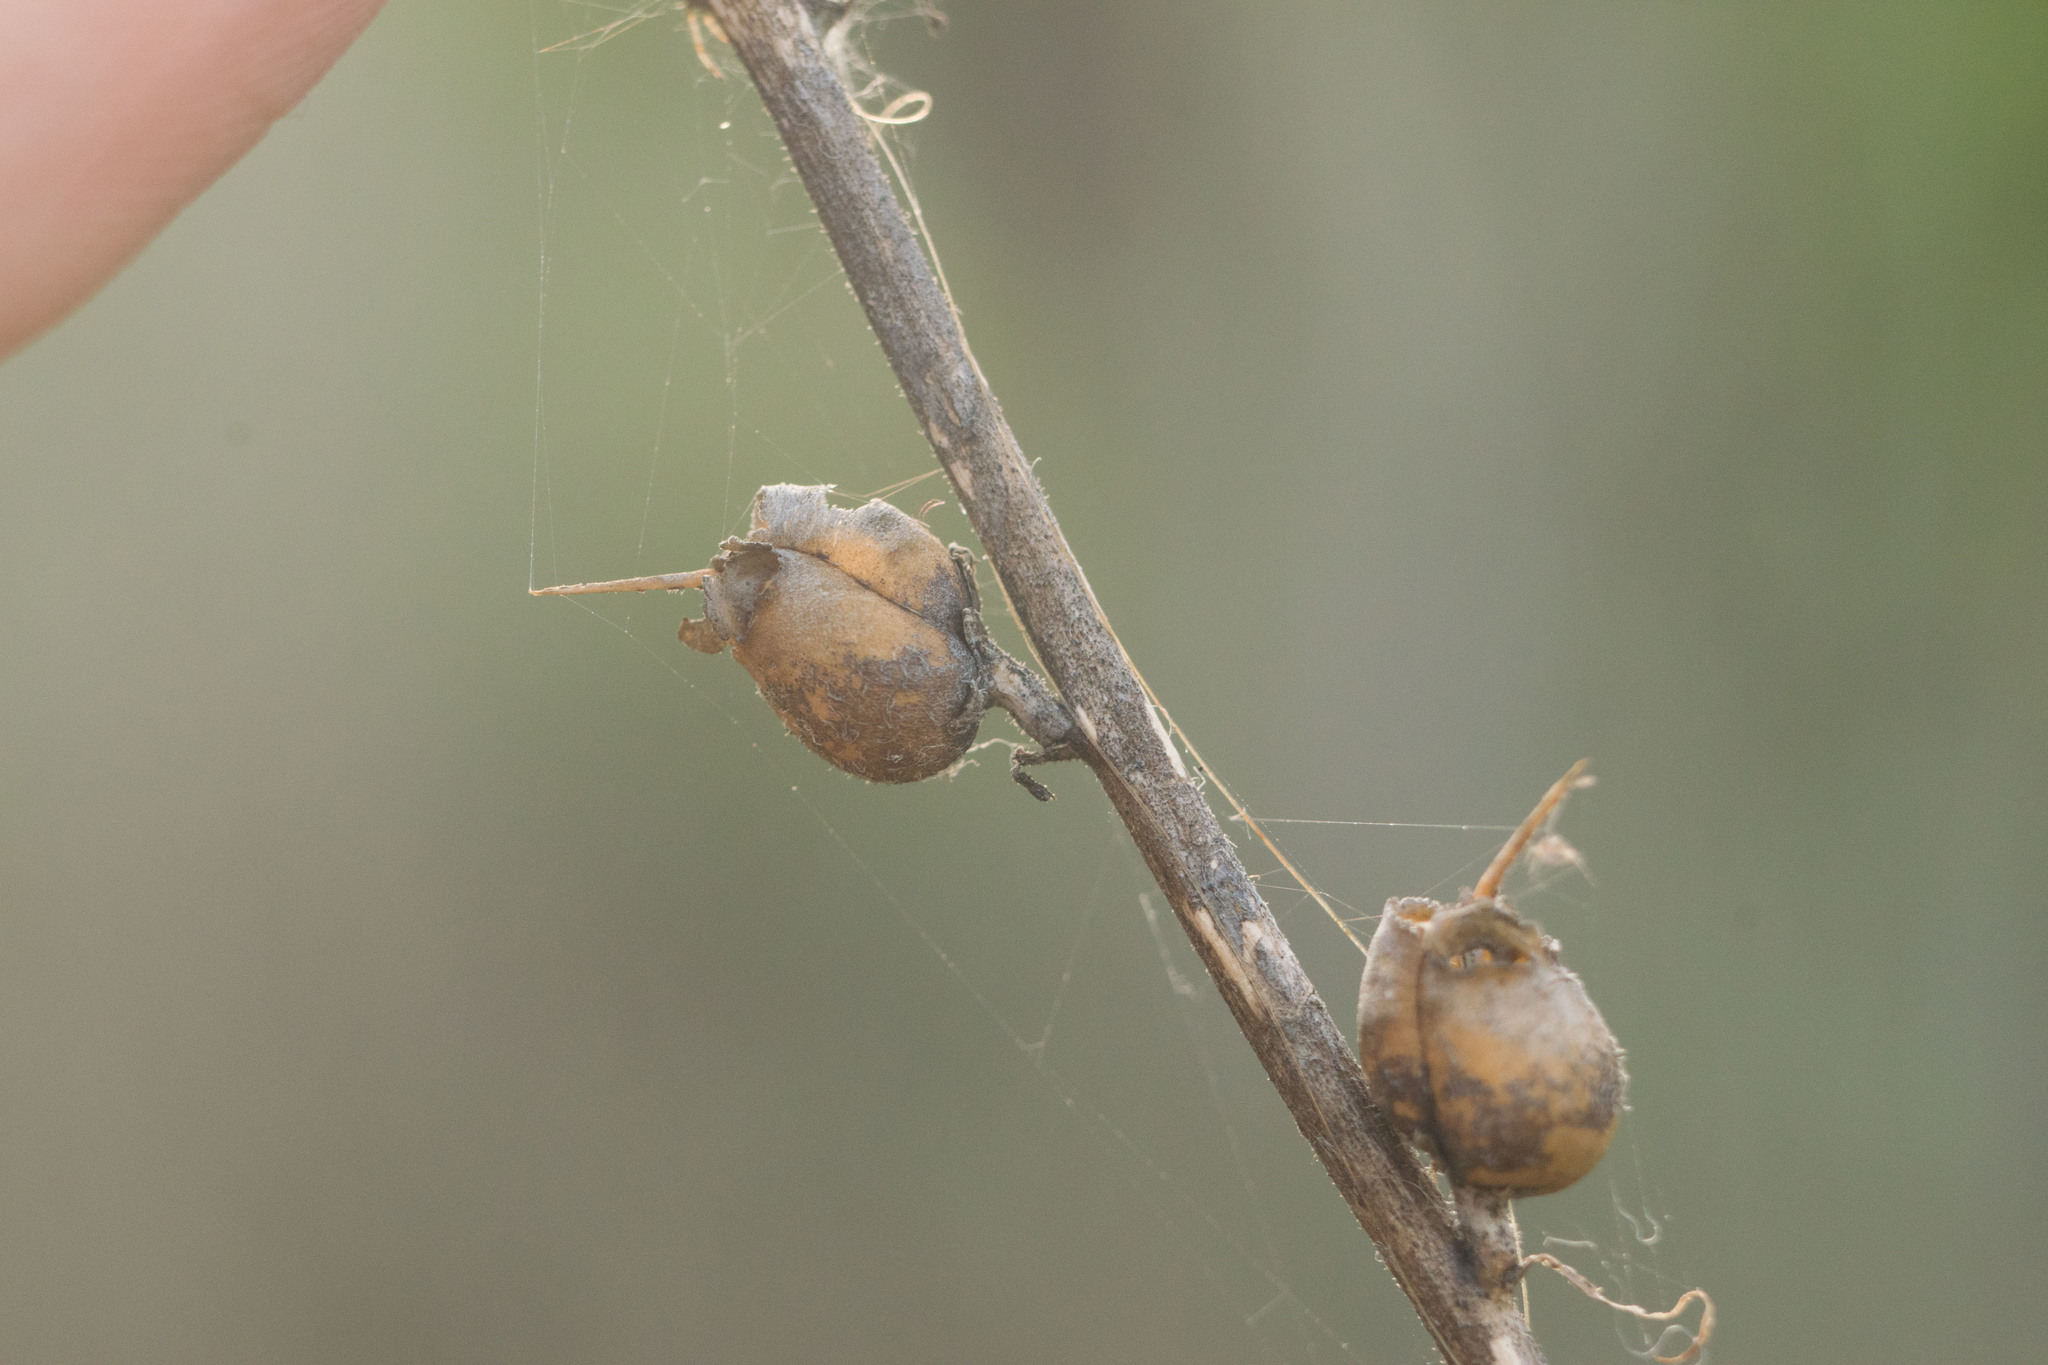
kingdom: Plantae
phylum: Tracheophyta
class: Magnoliopsida
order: Lamiales
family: Plantaginaceae
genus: Misopates
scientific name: Misopates orontium
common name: Weasel's-snout
